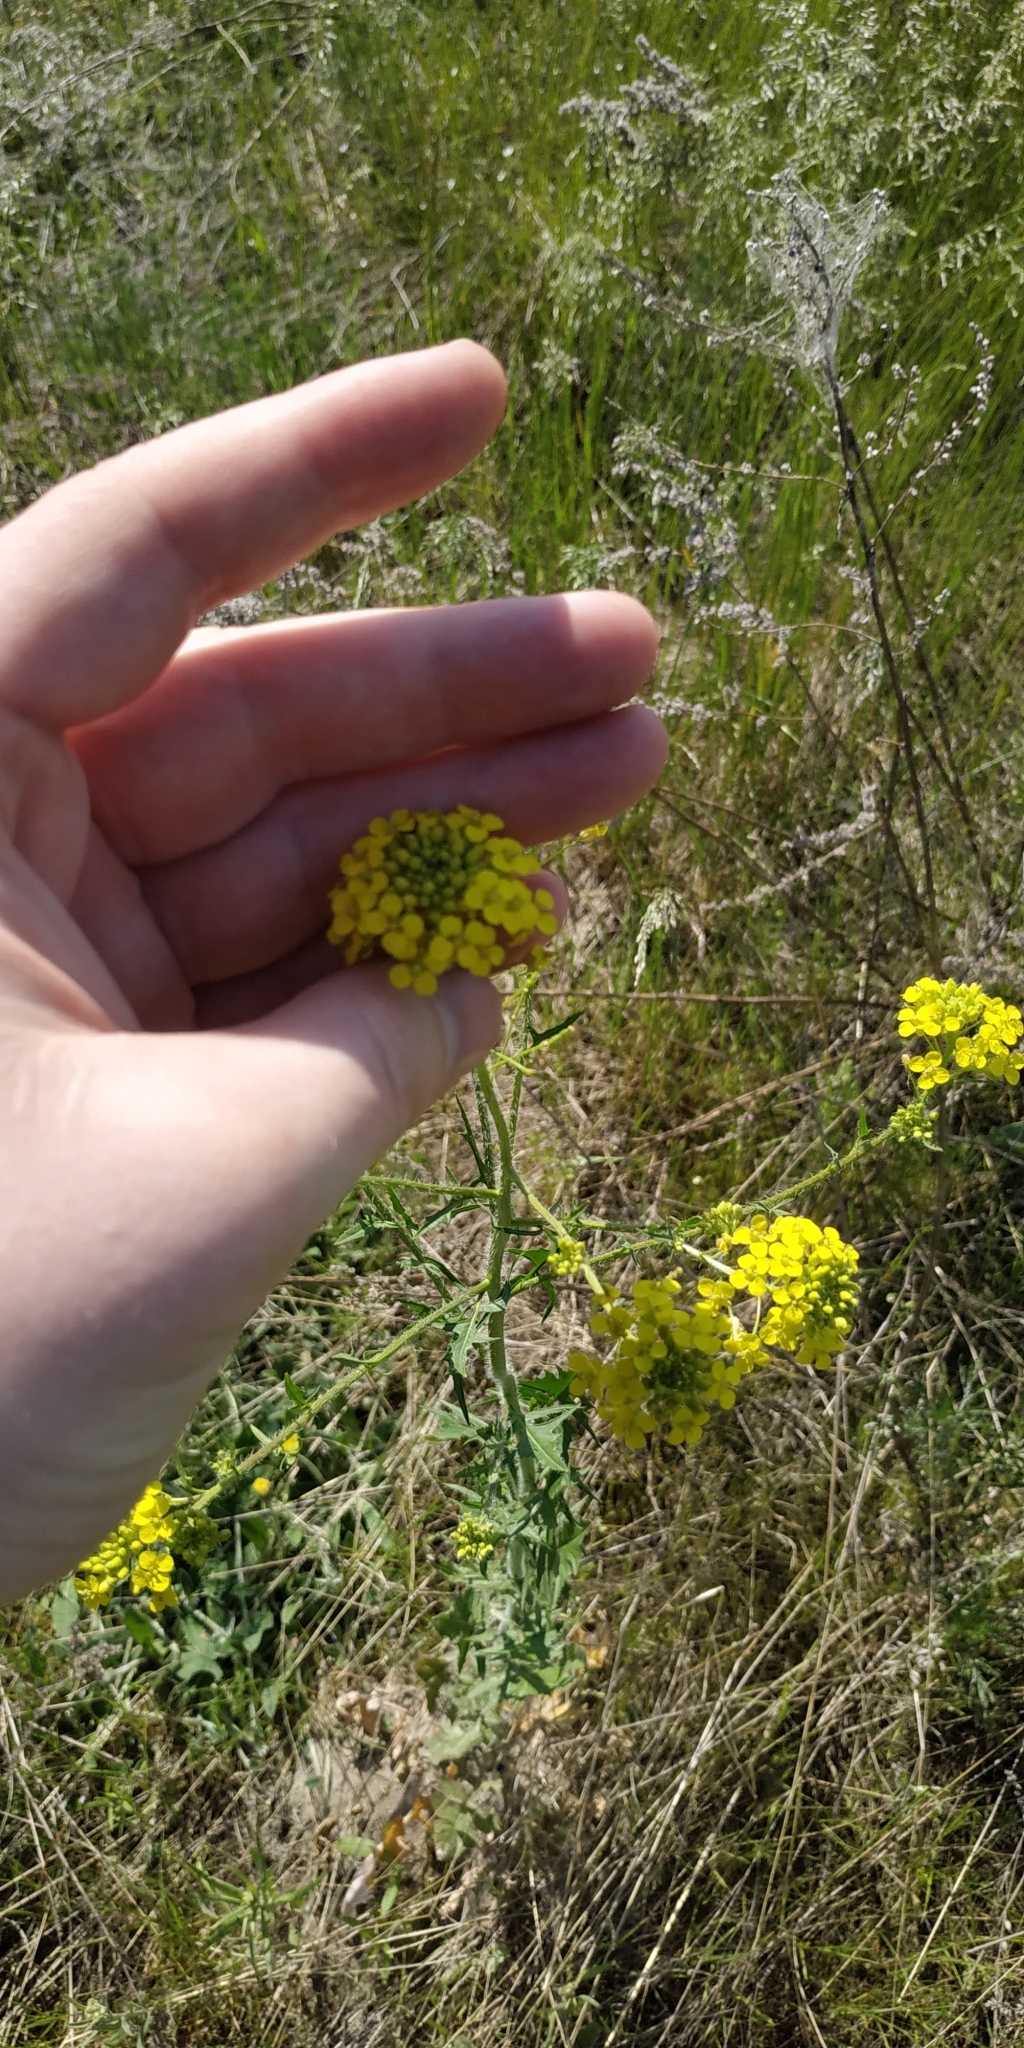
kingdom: Plantae
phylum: Tracheophyta
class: Magnoliopsida
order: Brassicales
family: Brassicaceae
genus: Sisymbrium
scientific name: Sisymbrium loeselii
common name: False london-rocket
